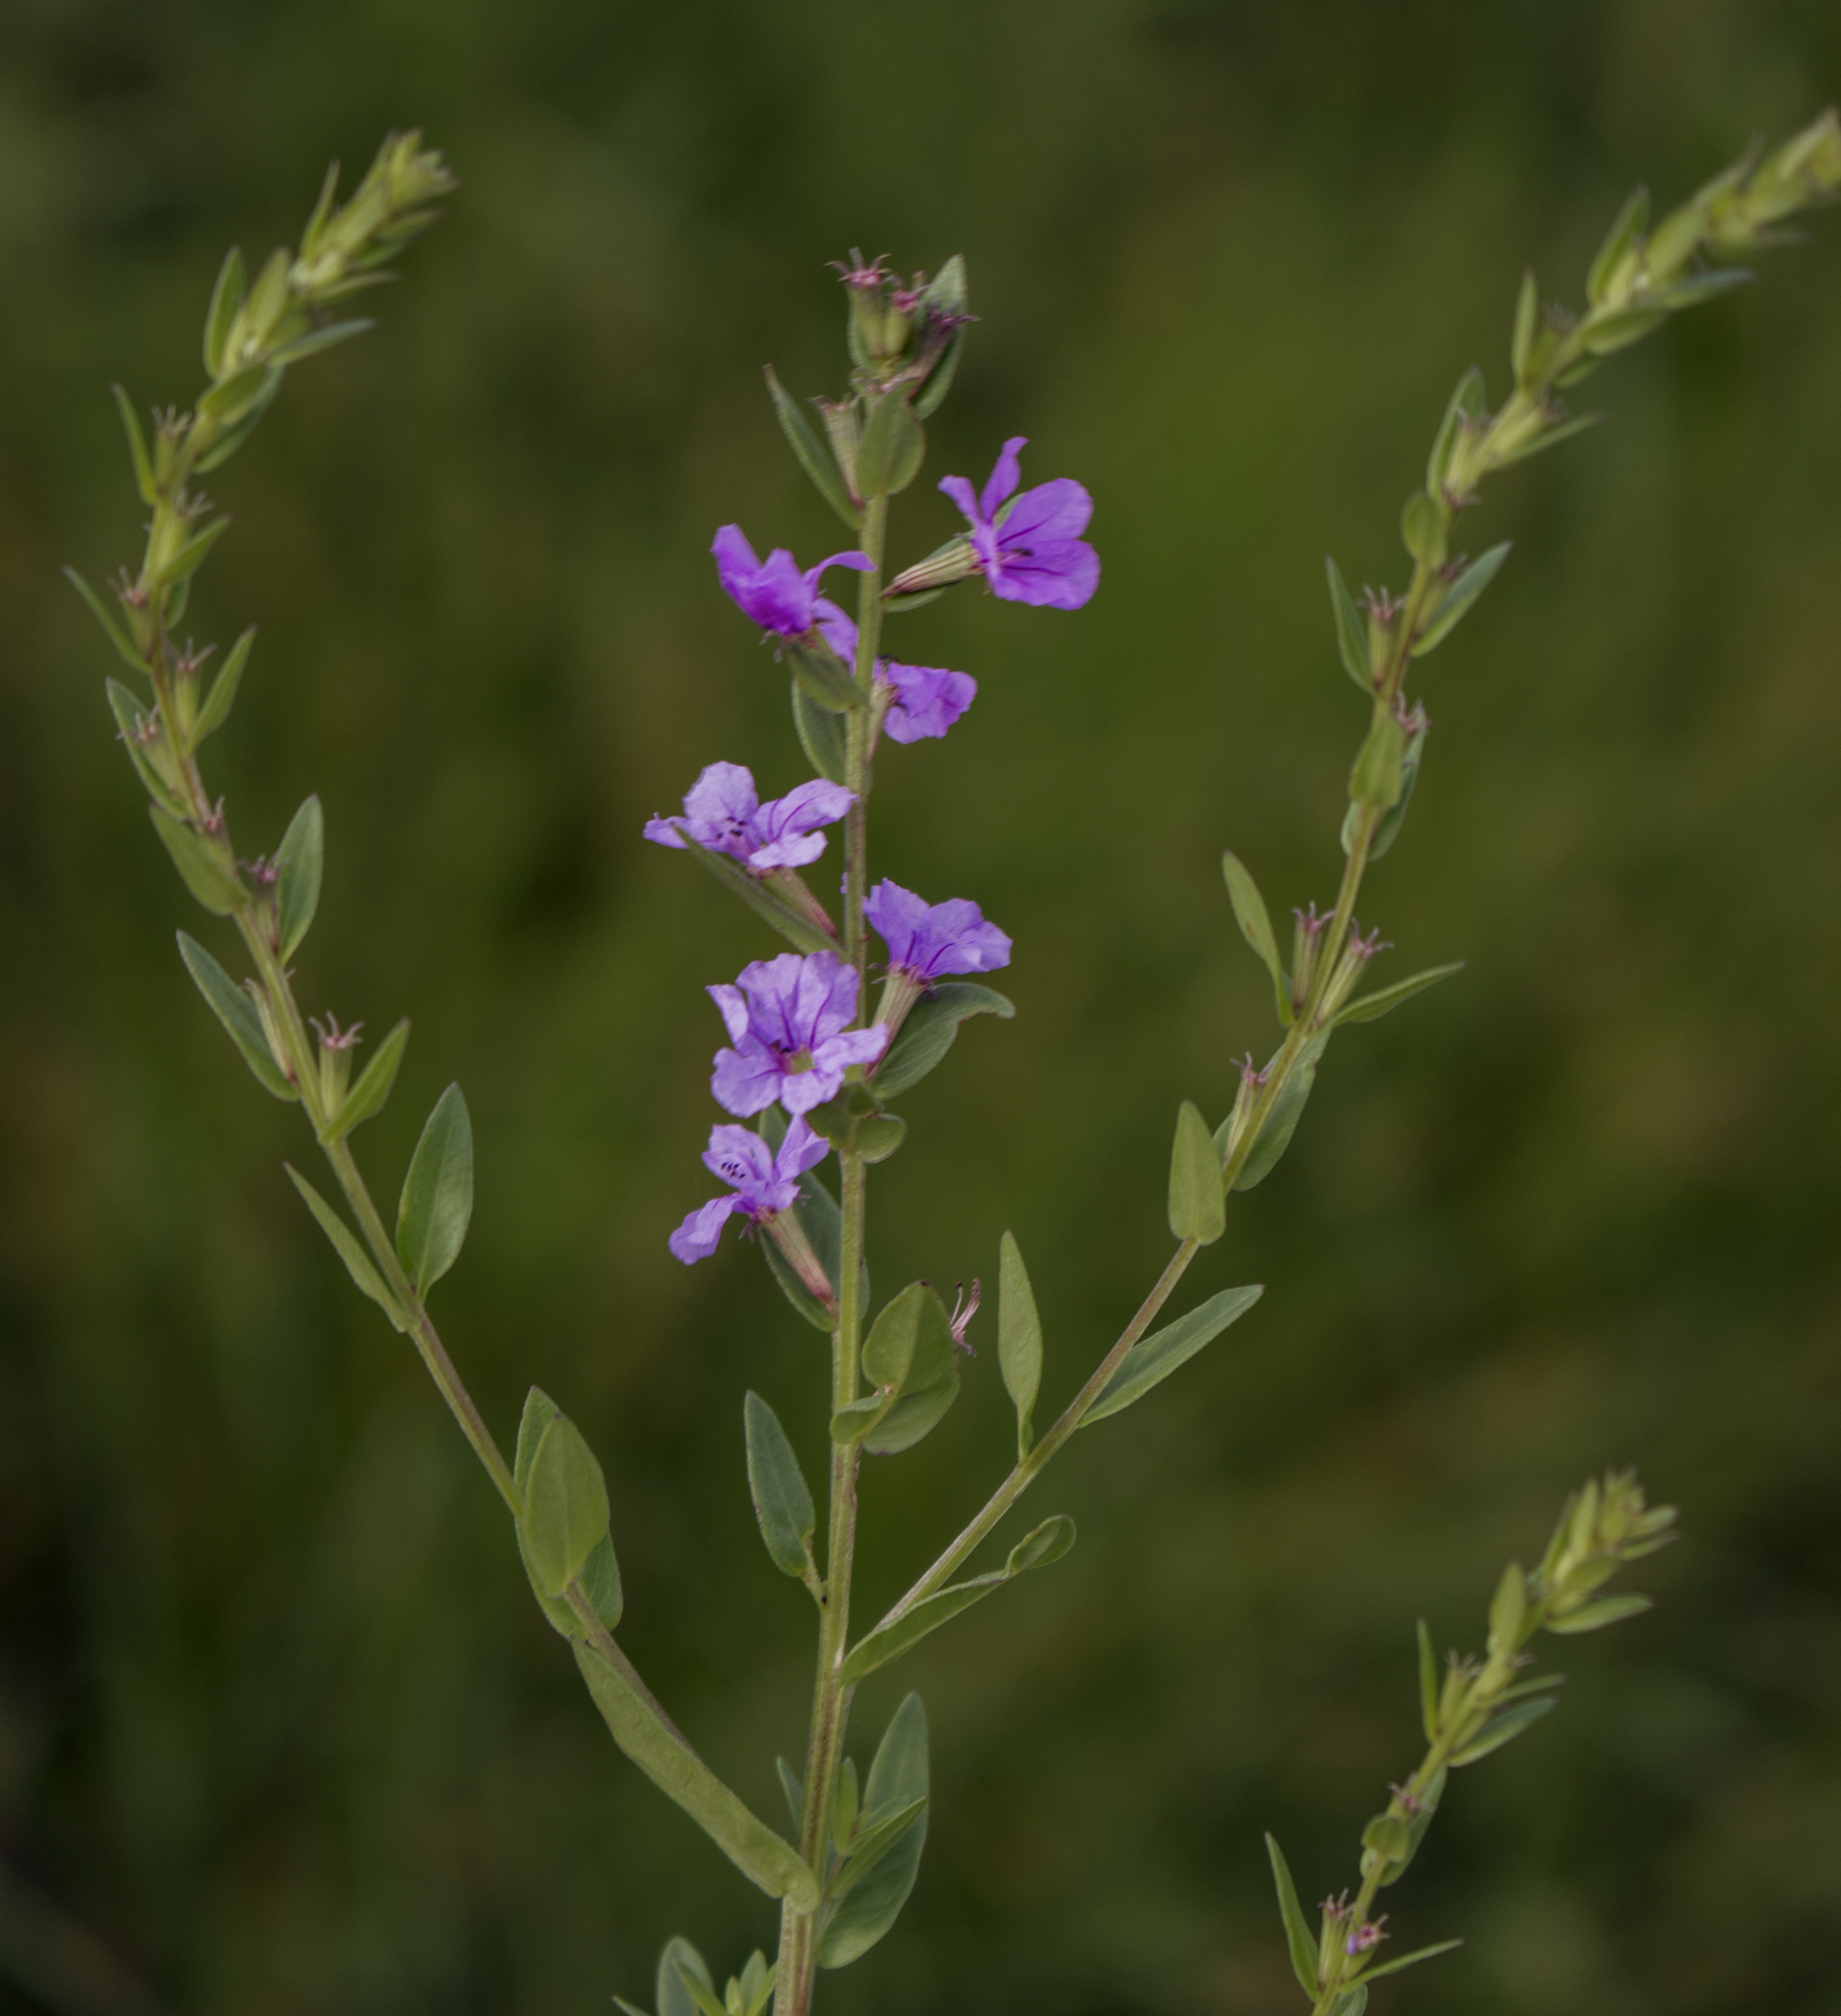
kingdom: Plantae
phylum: Tracheophyta
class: Magnoliopsida
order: Myrtales
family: Lythraceae
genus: Lythrum
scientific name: Lythrum alatum
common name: Winged loosestrife
